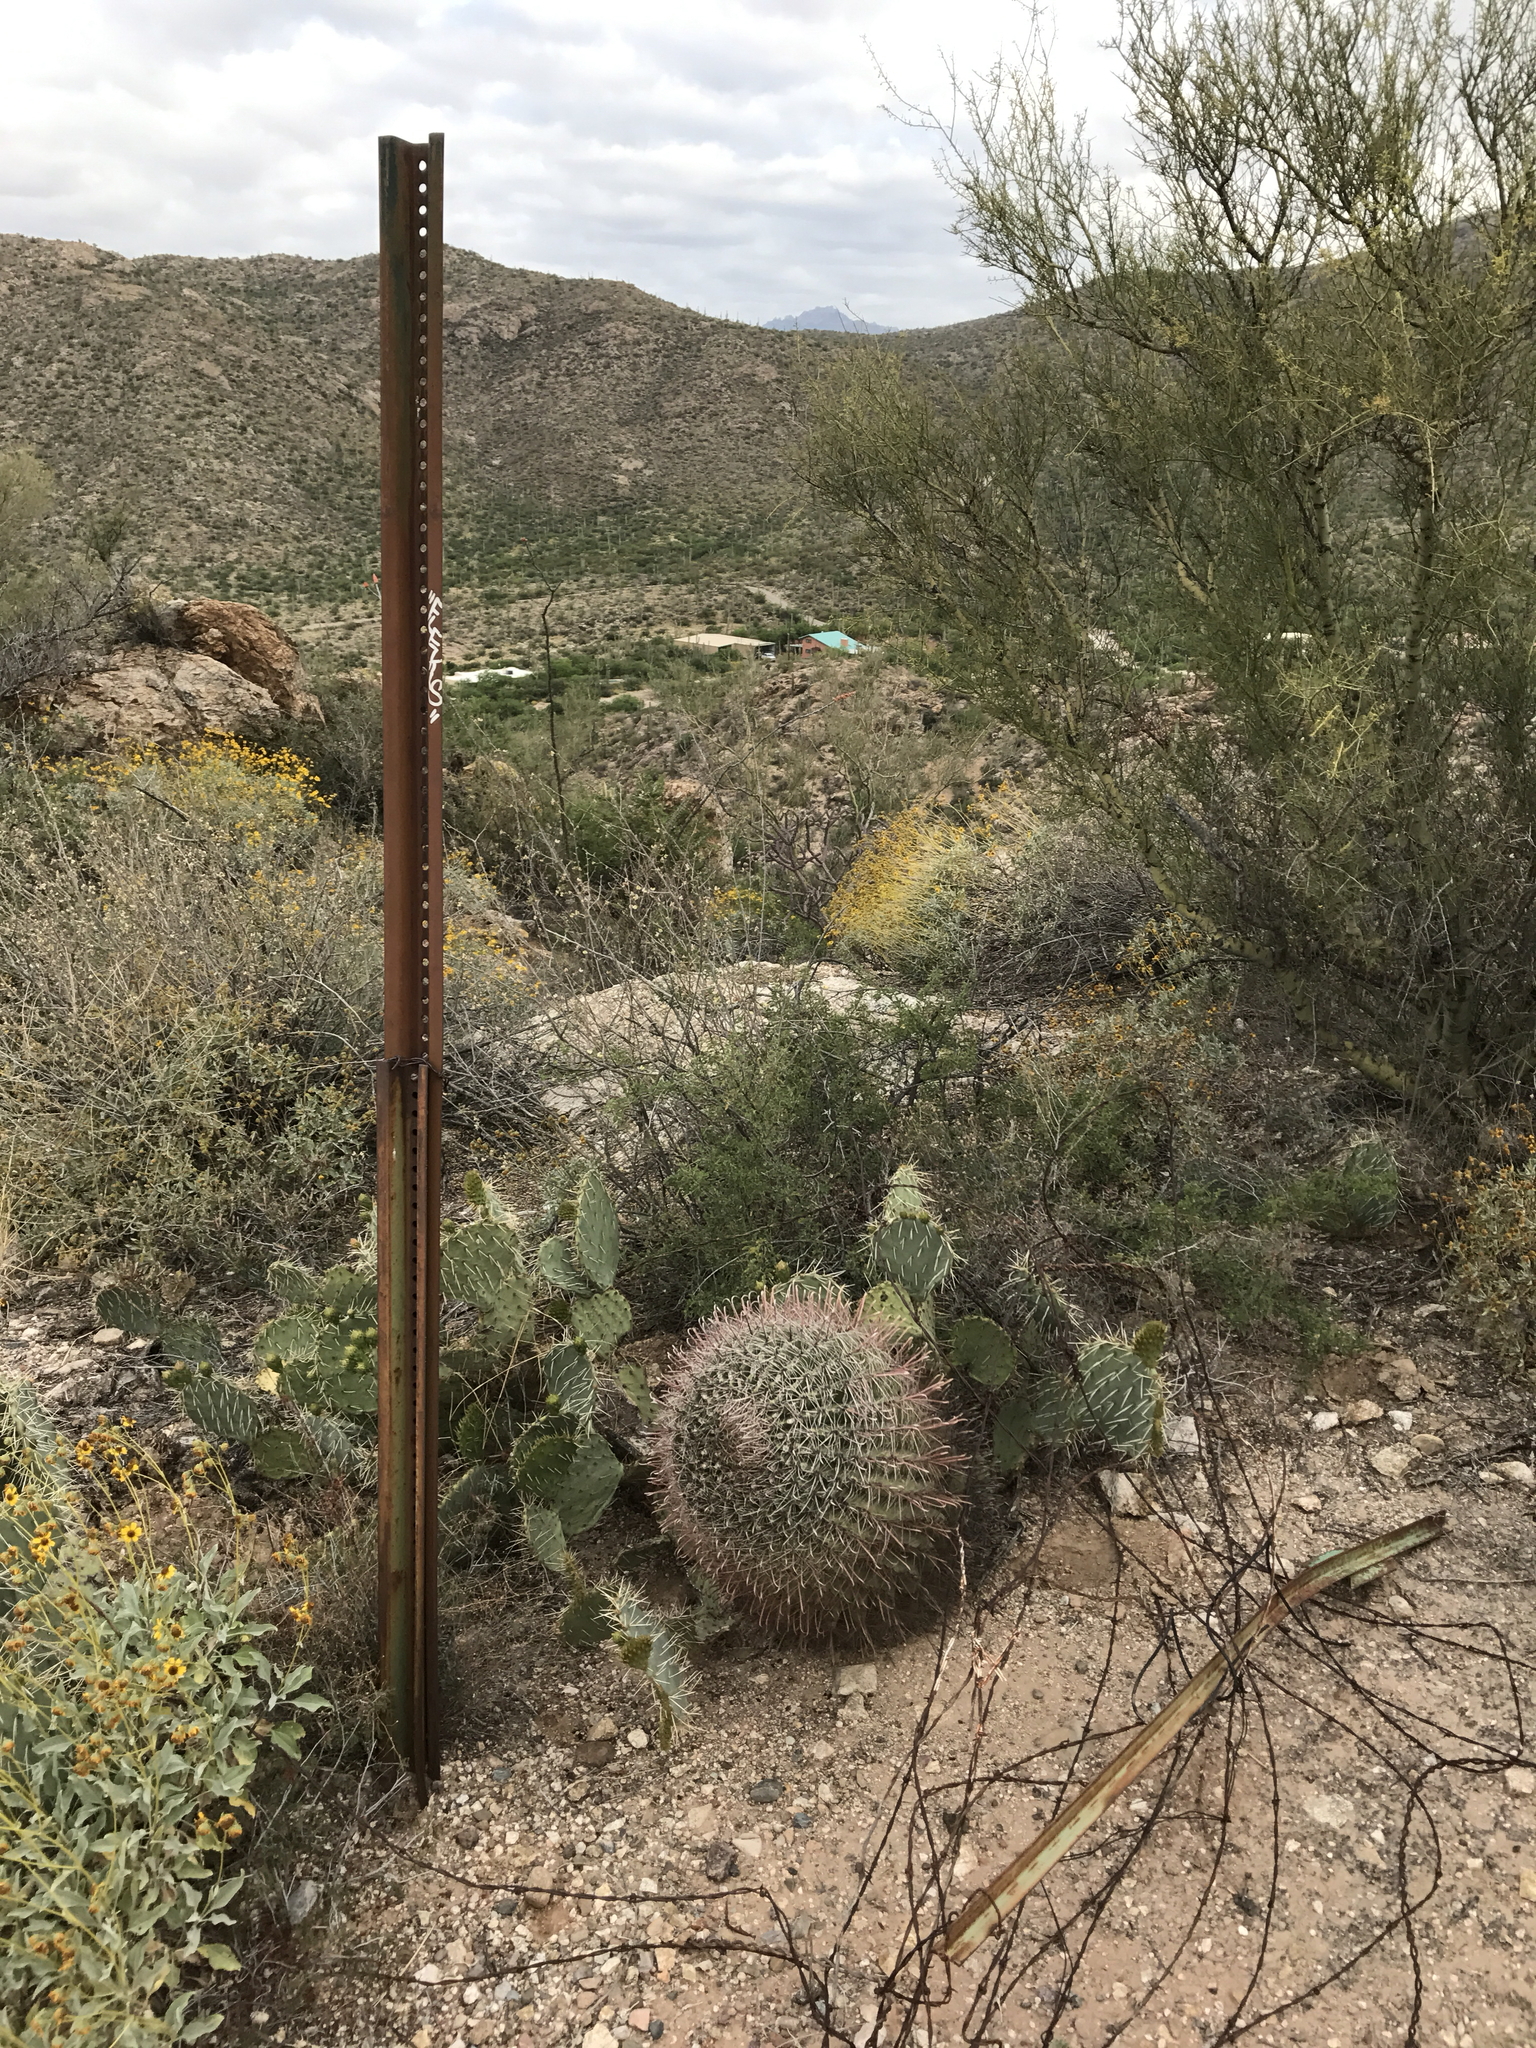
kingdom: Plantae
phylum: Tracheophyta
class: Magnoliopsida
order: Caryophyllales
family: Cactaceae
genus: Ferocactus
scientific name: Ferocactus wislizeni
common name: Candy barrel cactus
